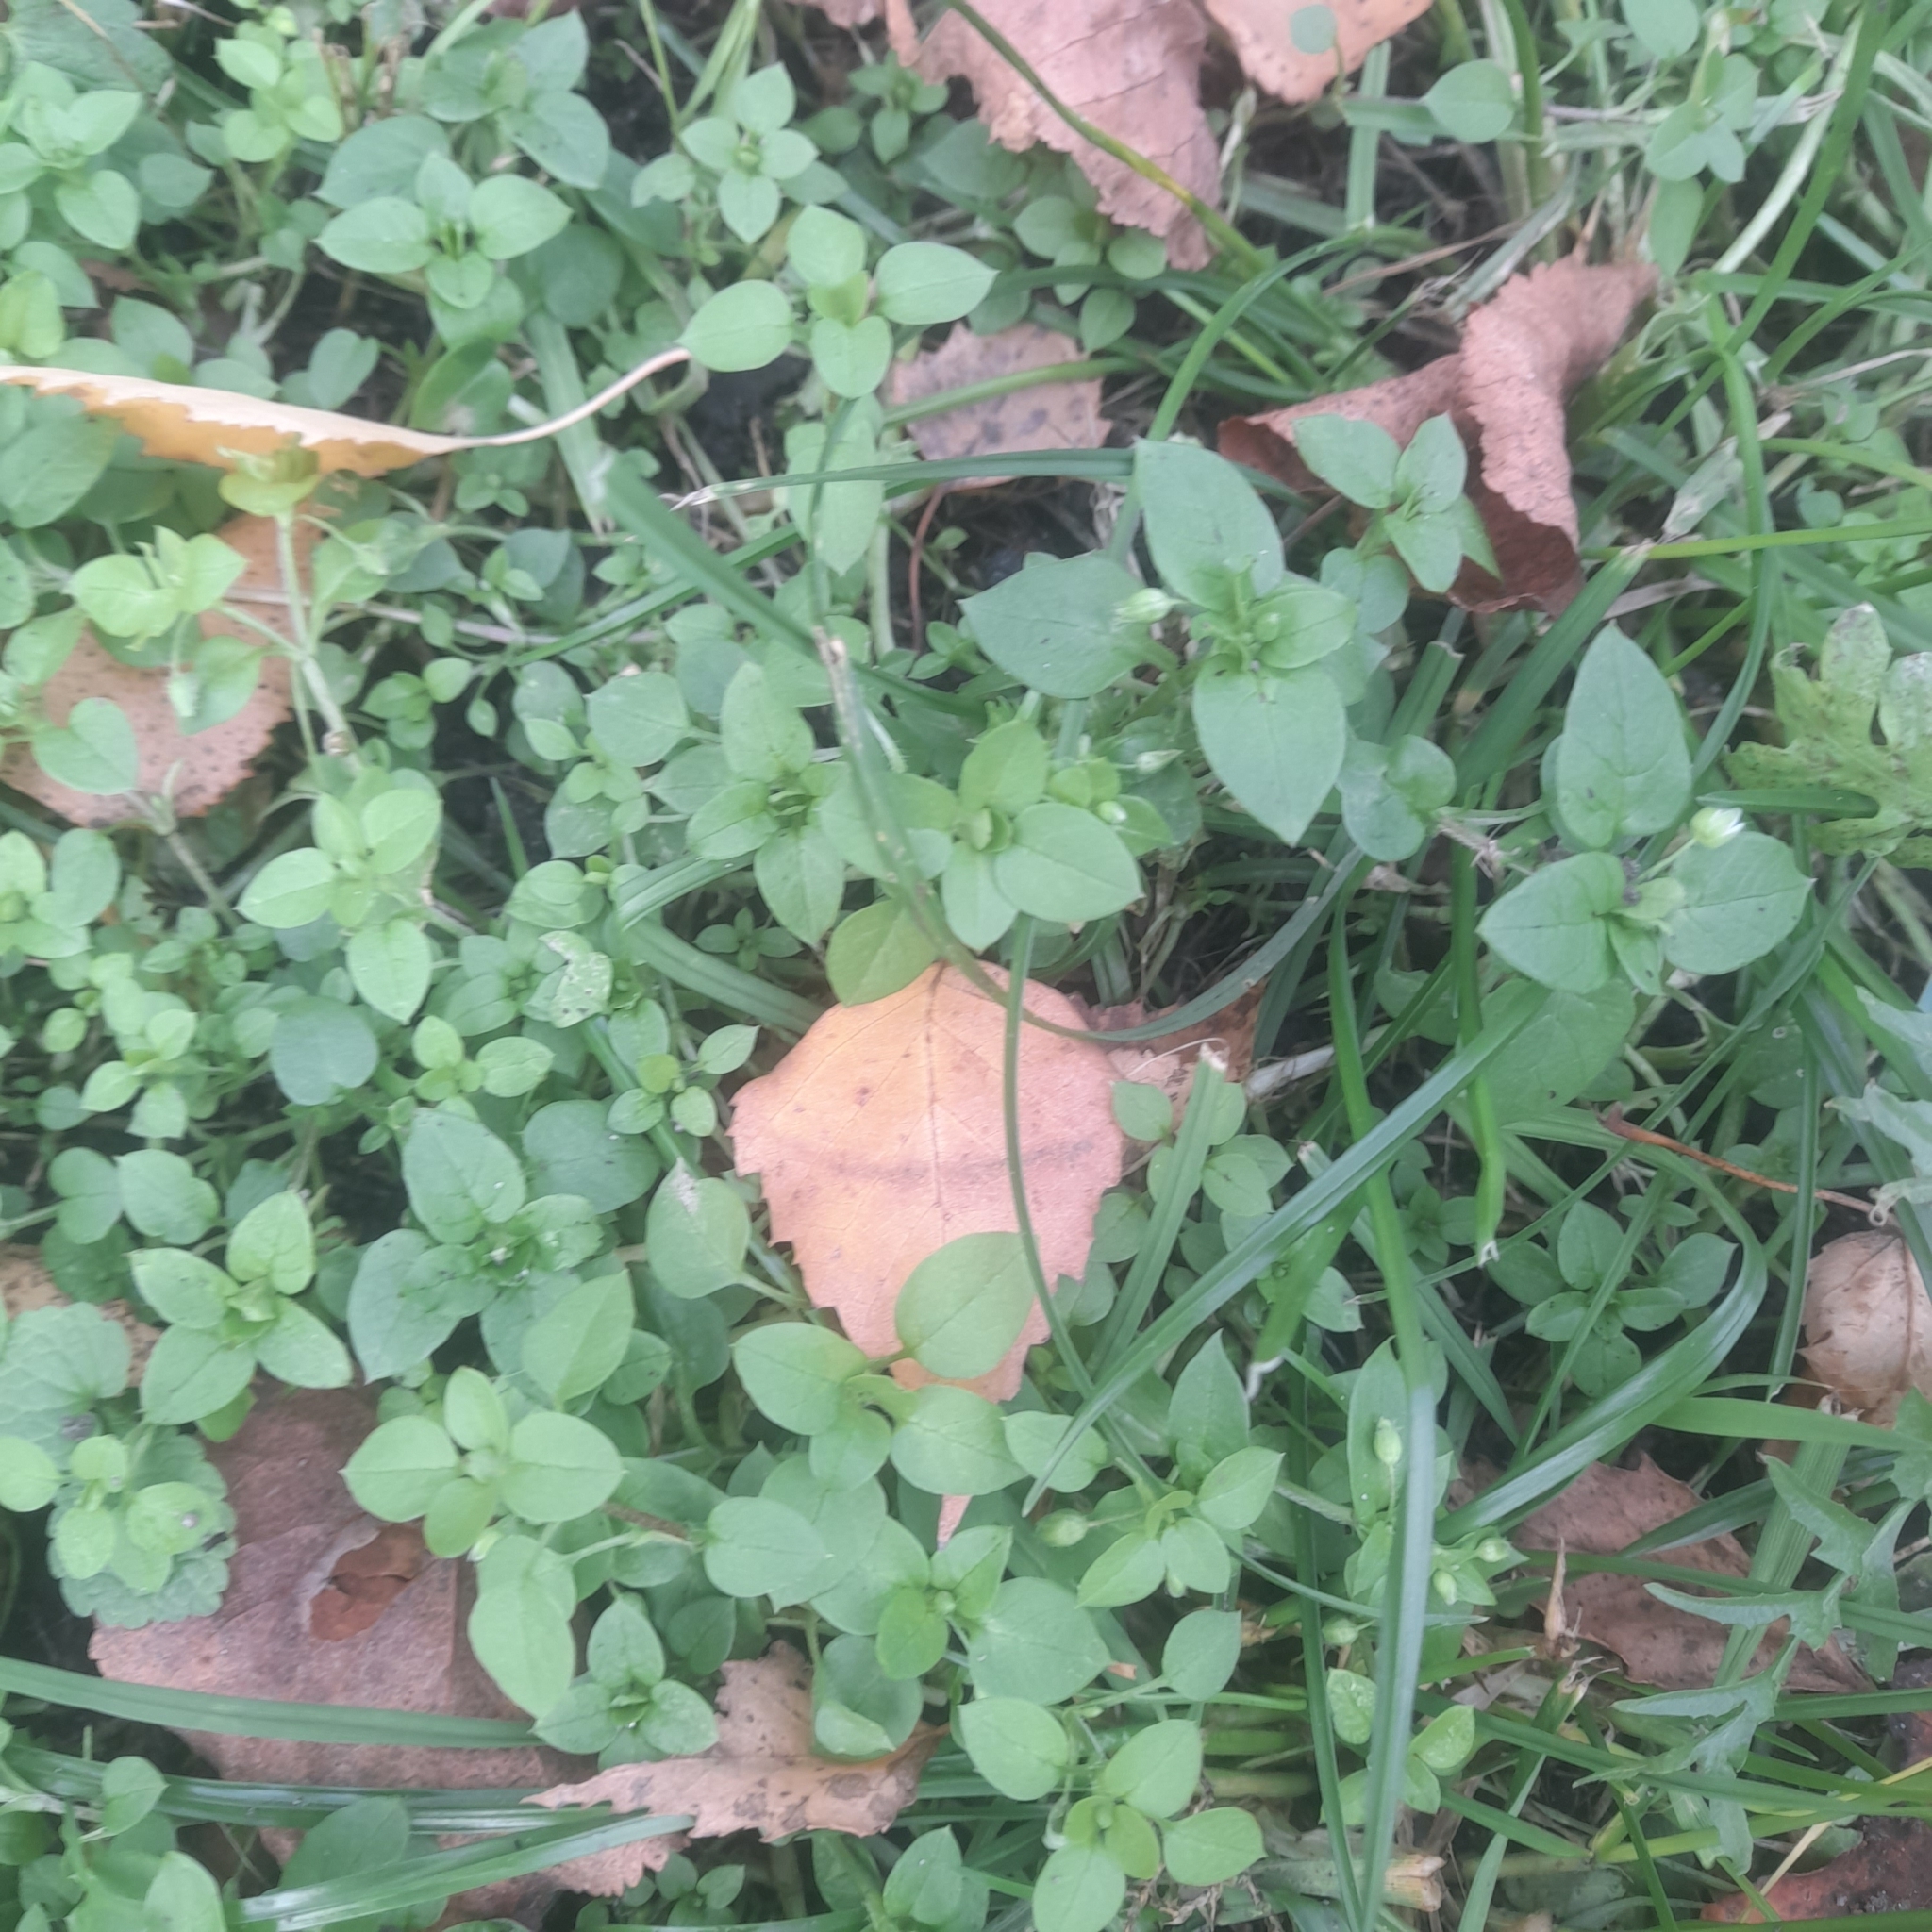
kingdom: Plantae
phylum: Tracheophyta
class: Magnoliopsida
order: Caryophyllales
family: Caryophyllaceae
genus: Stellaria
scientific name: Stellaria media
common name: Common chickweed
